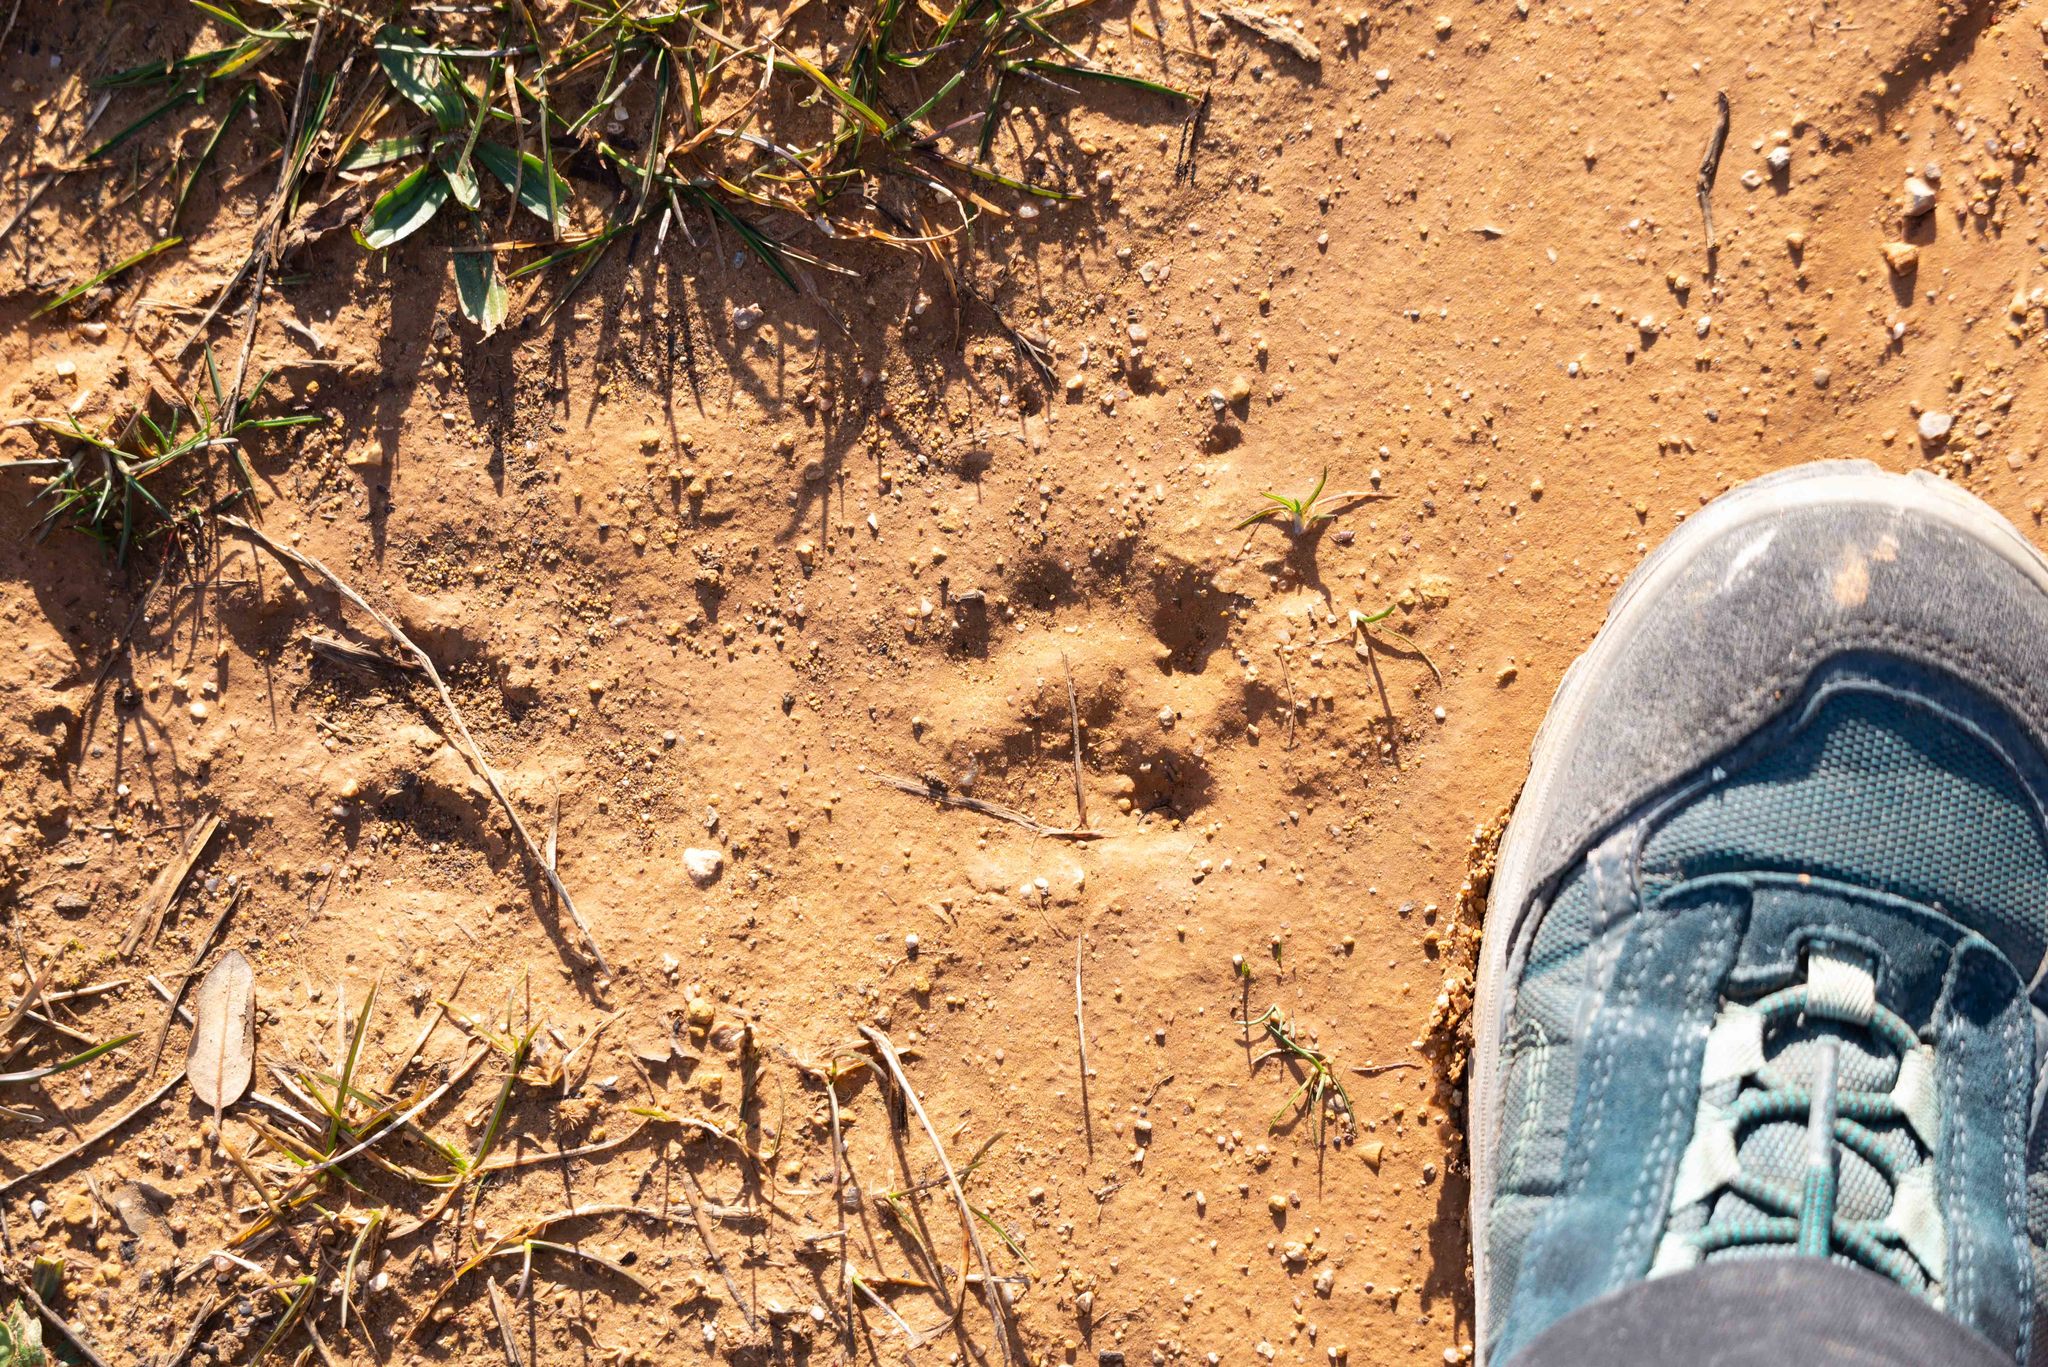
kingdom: Animalia
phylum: Chordata
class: Mammalia
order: Carnivora
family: Mustelidae
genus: Meles
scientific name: Meles meles
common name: Eurasian badger
